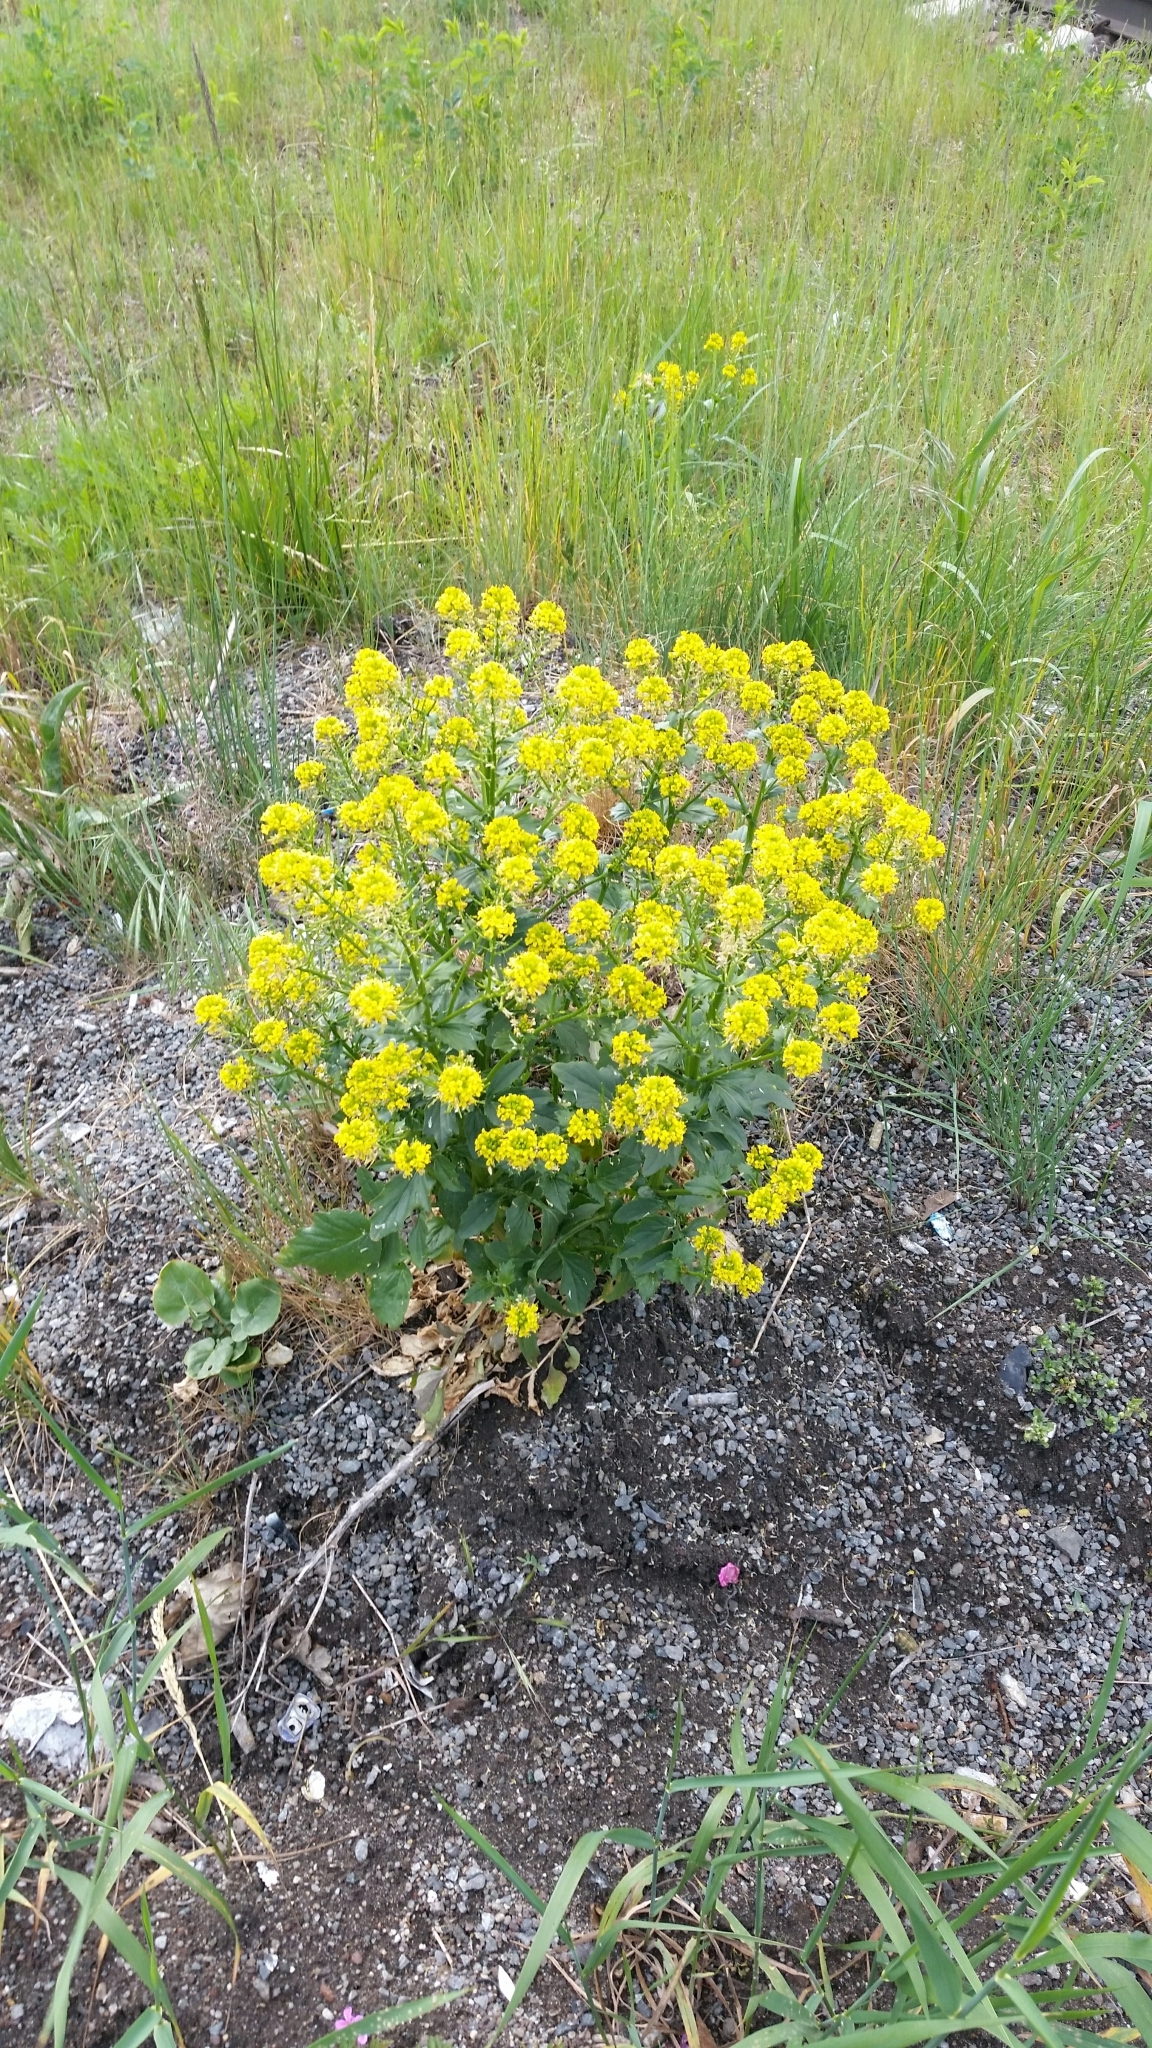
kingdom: Plantae
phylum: Tracheophyta
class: Magnoliopsida
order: Brassicales
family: Brassicaceae
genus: Barbarea
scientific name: Barbarea vulgaris
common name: Cressy-greens
